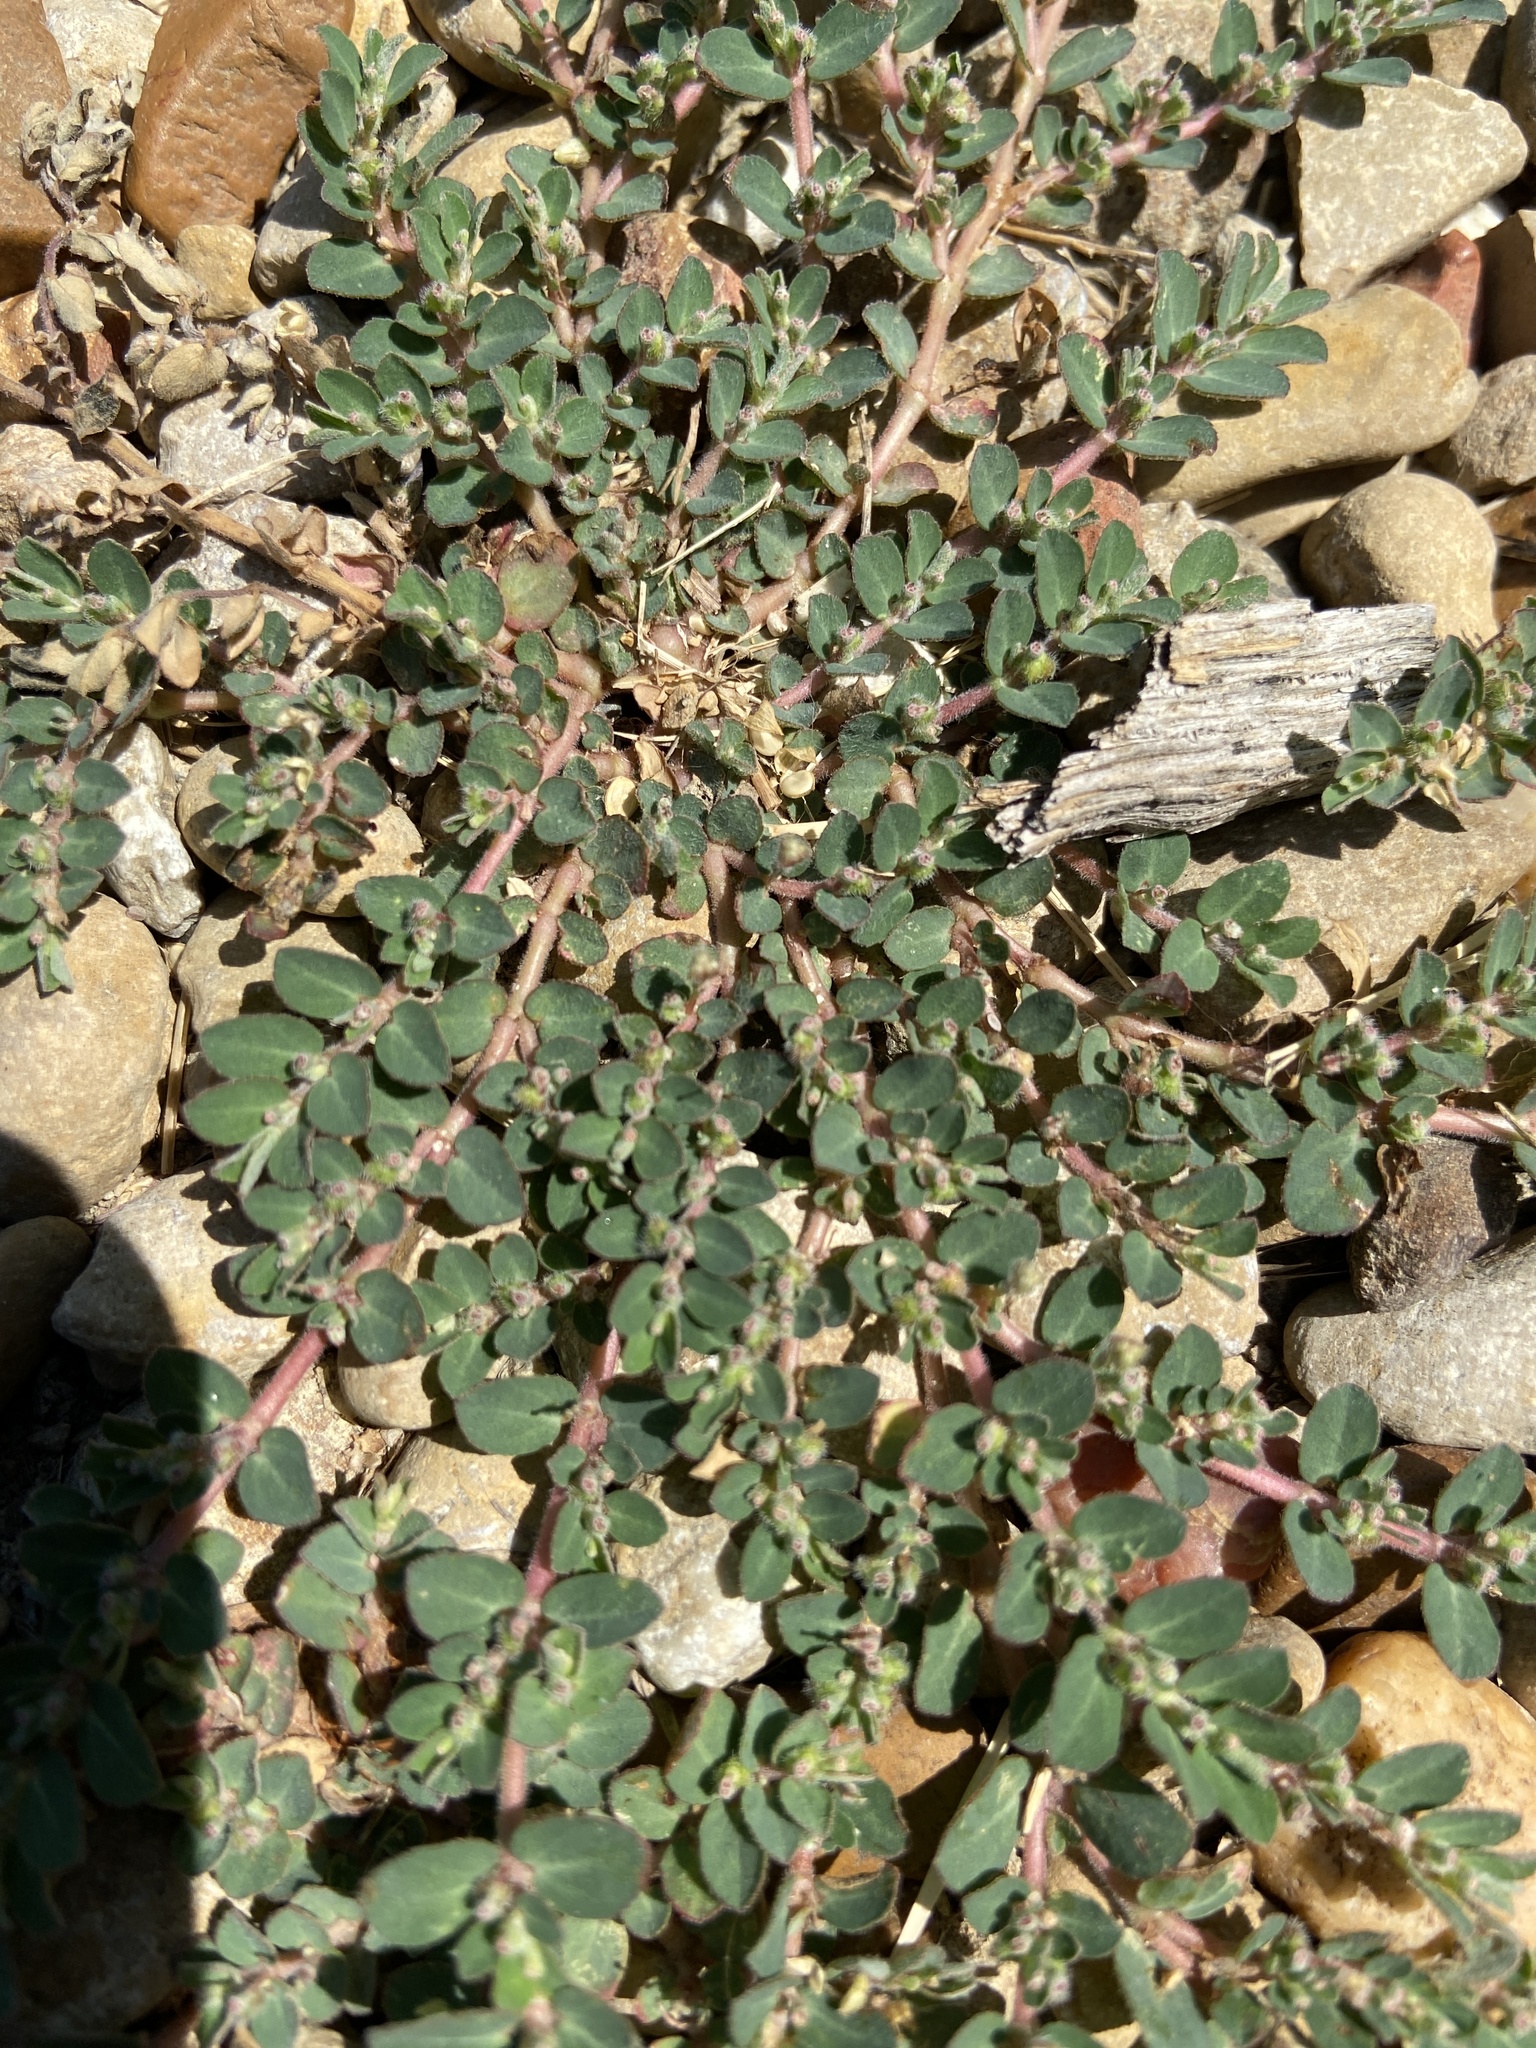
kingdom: Plantae
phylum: Tracheophyta
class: Magnoliopsida
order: Malpighiales
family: Euphorbiaceae
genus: Euphorbia
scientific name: Euphorbia prostrata
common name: Prostrate sandmat
